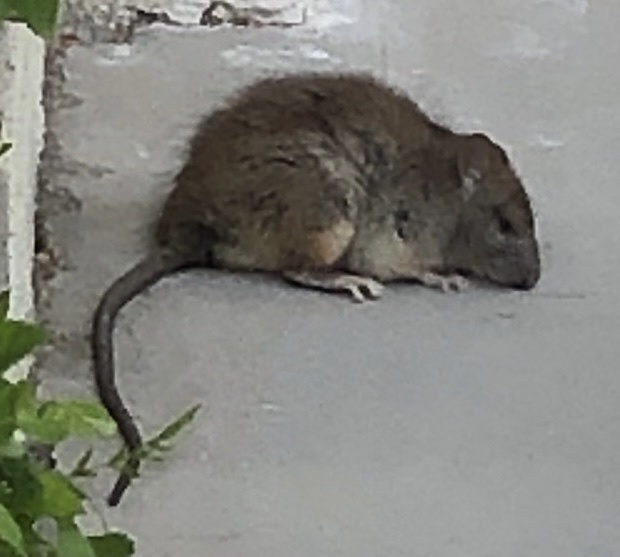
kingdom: Animalia
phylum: Chordata
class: Mammalia
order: Rodentia
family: Muridae
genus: Rattus
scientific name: Rattus rattus
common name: Black rat
